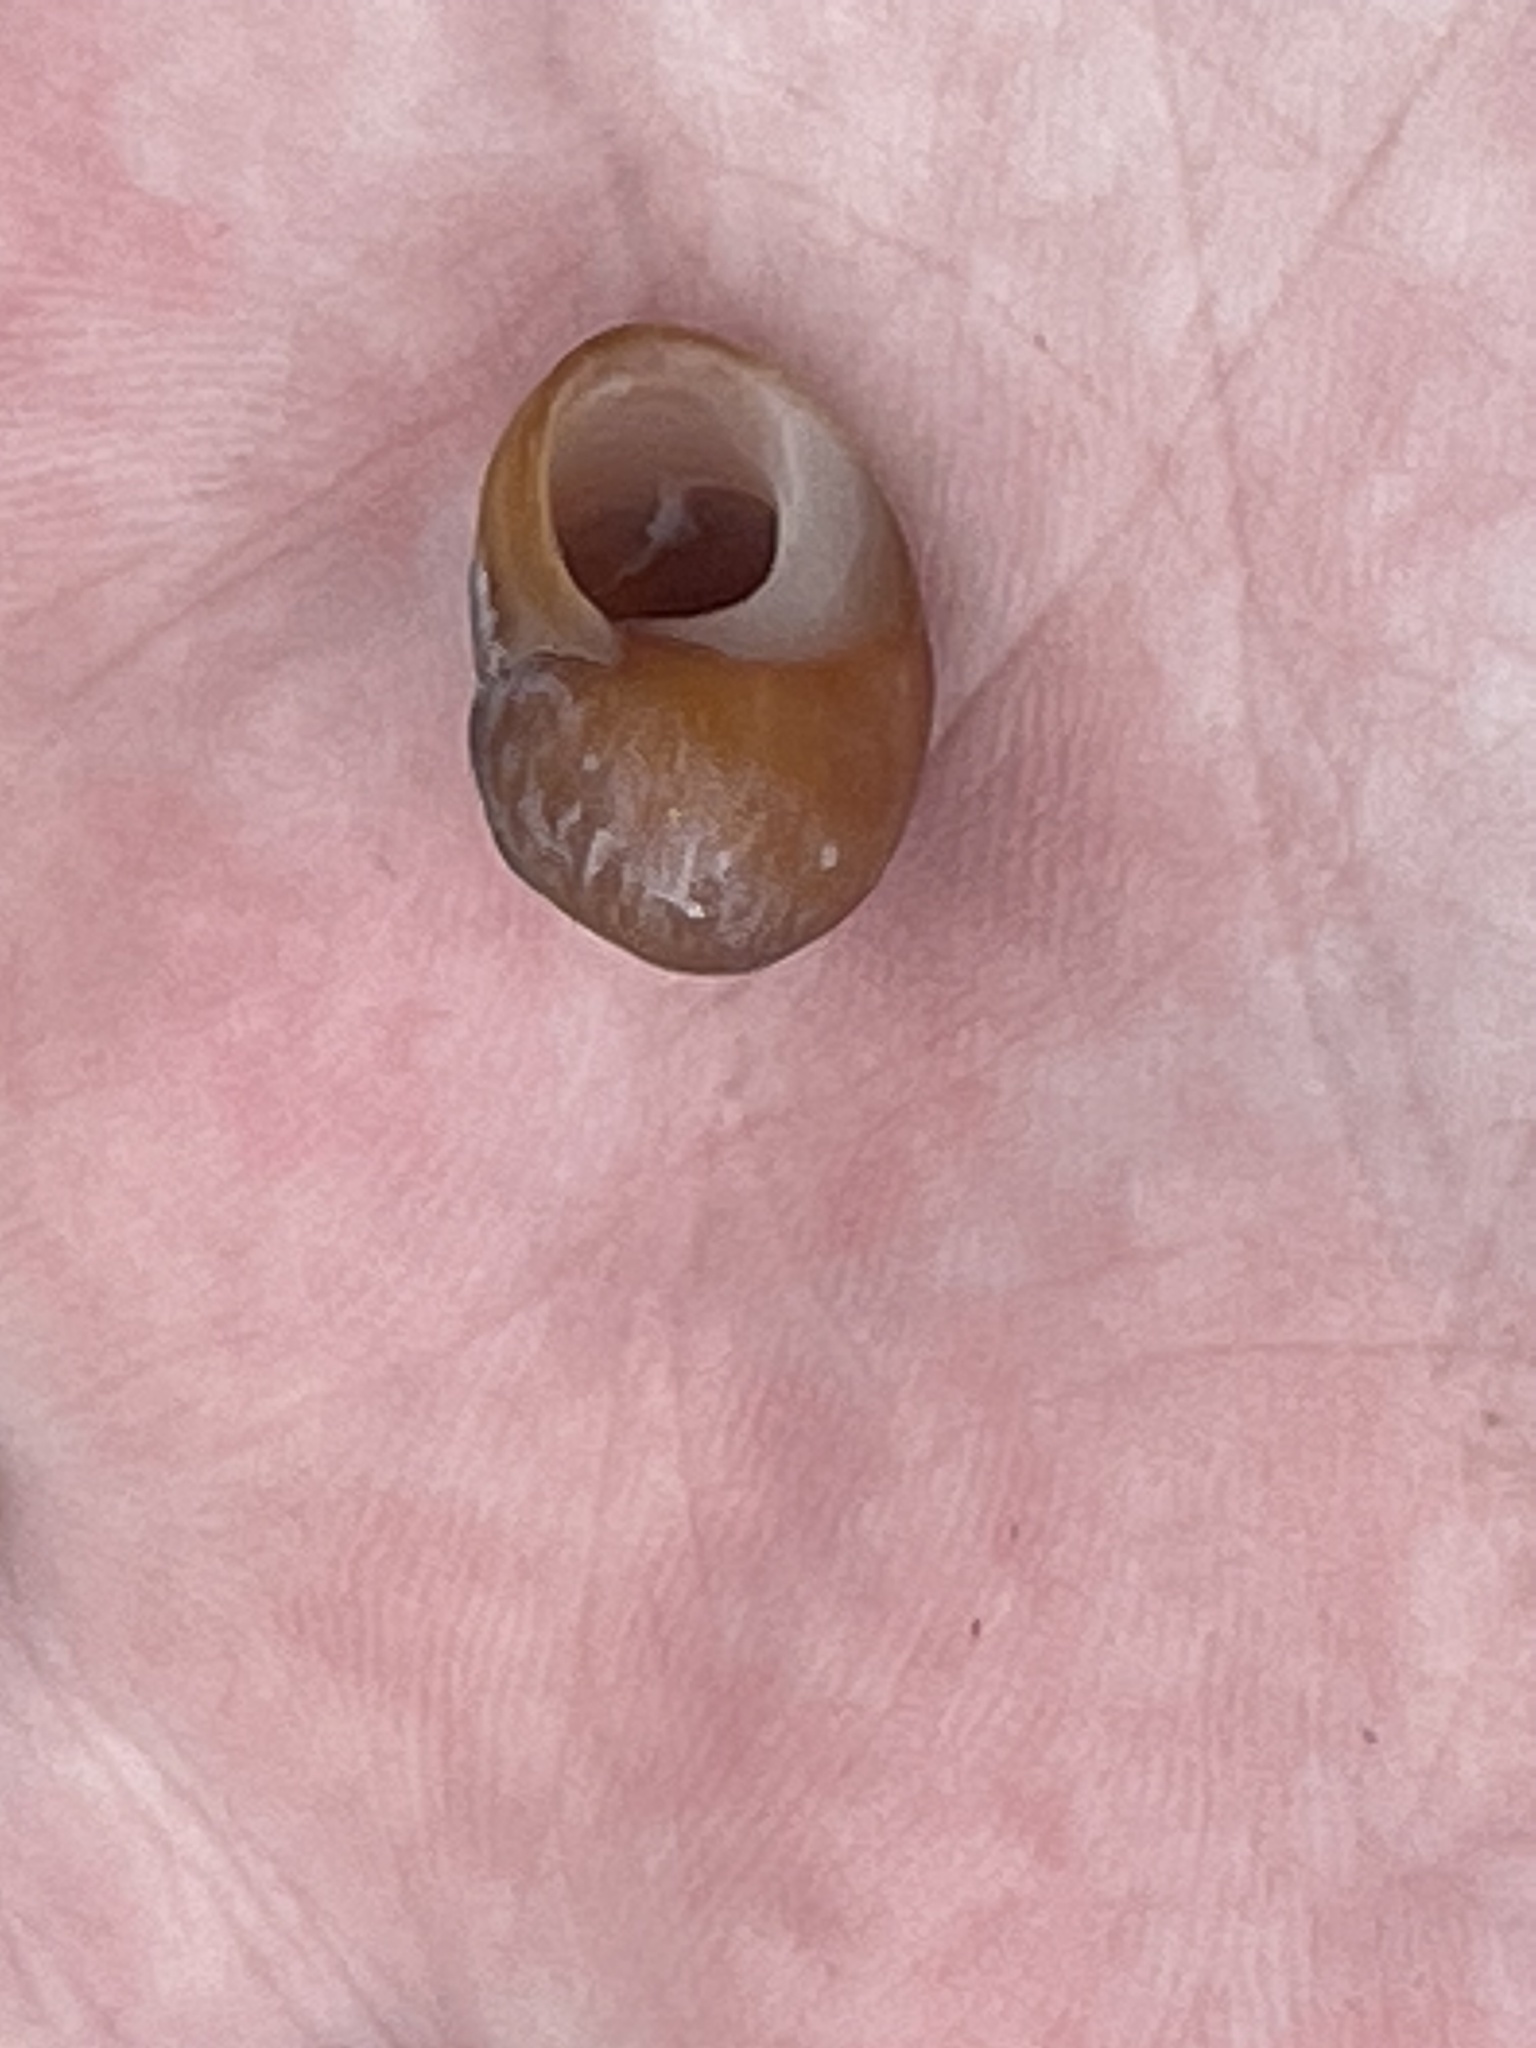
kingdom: Animalia
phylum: Mollusca
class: Gastropoda
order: Littorinimorpha
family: Littorinidae
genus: Littorina
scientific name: Littorina obtusata
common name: Flat periwinkle
